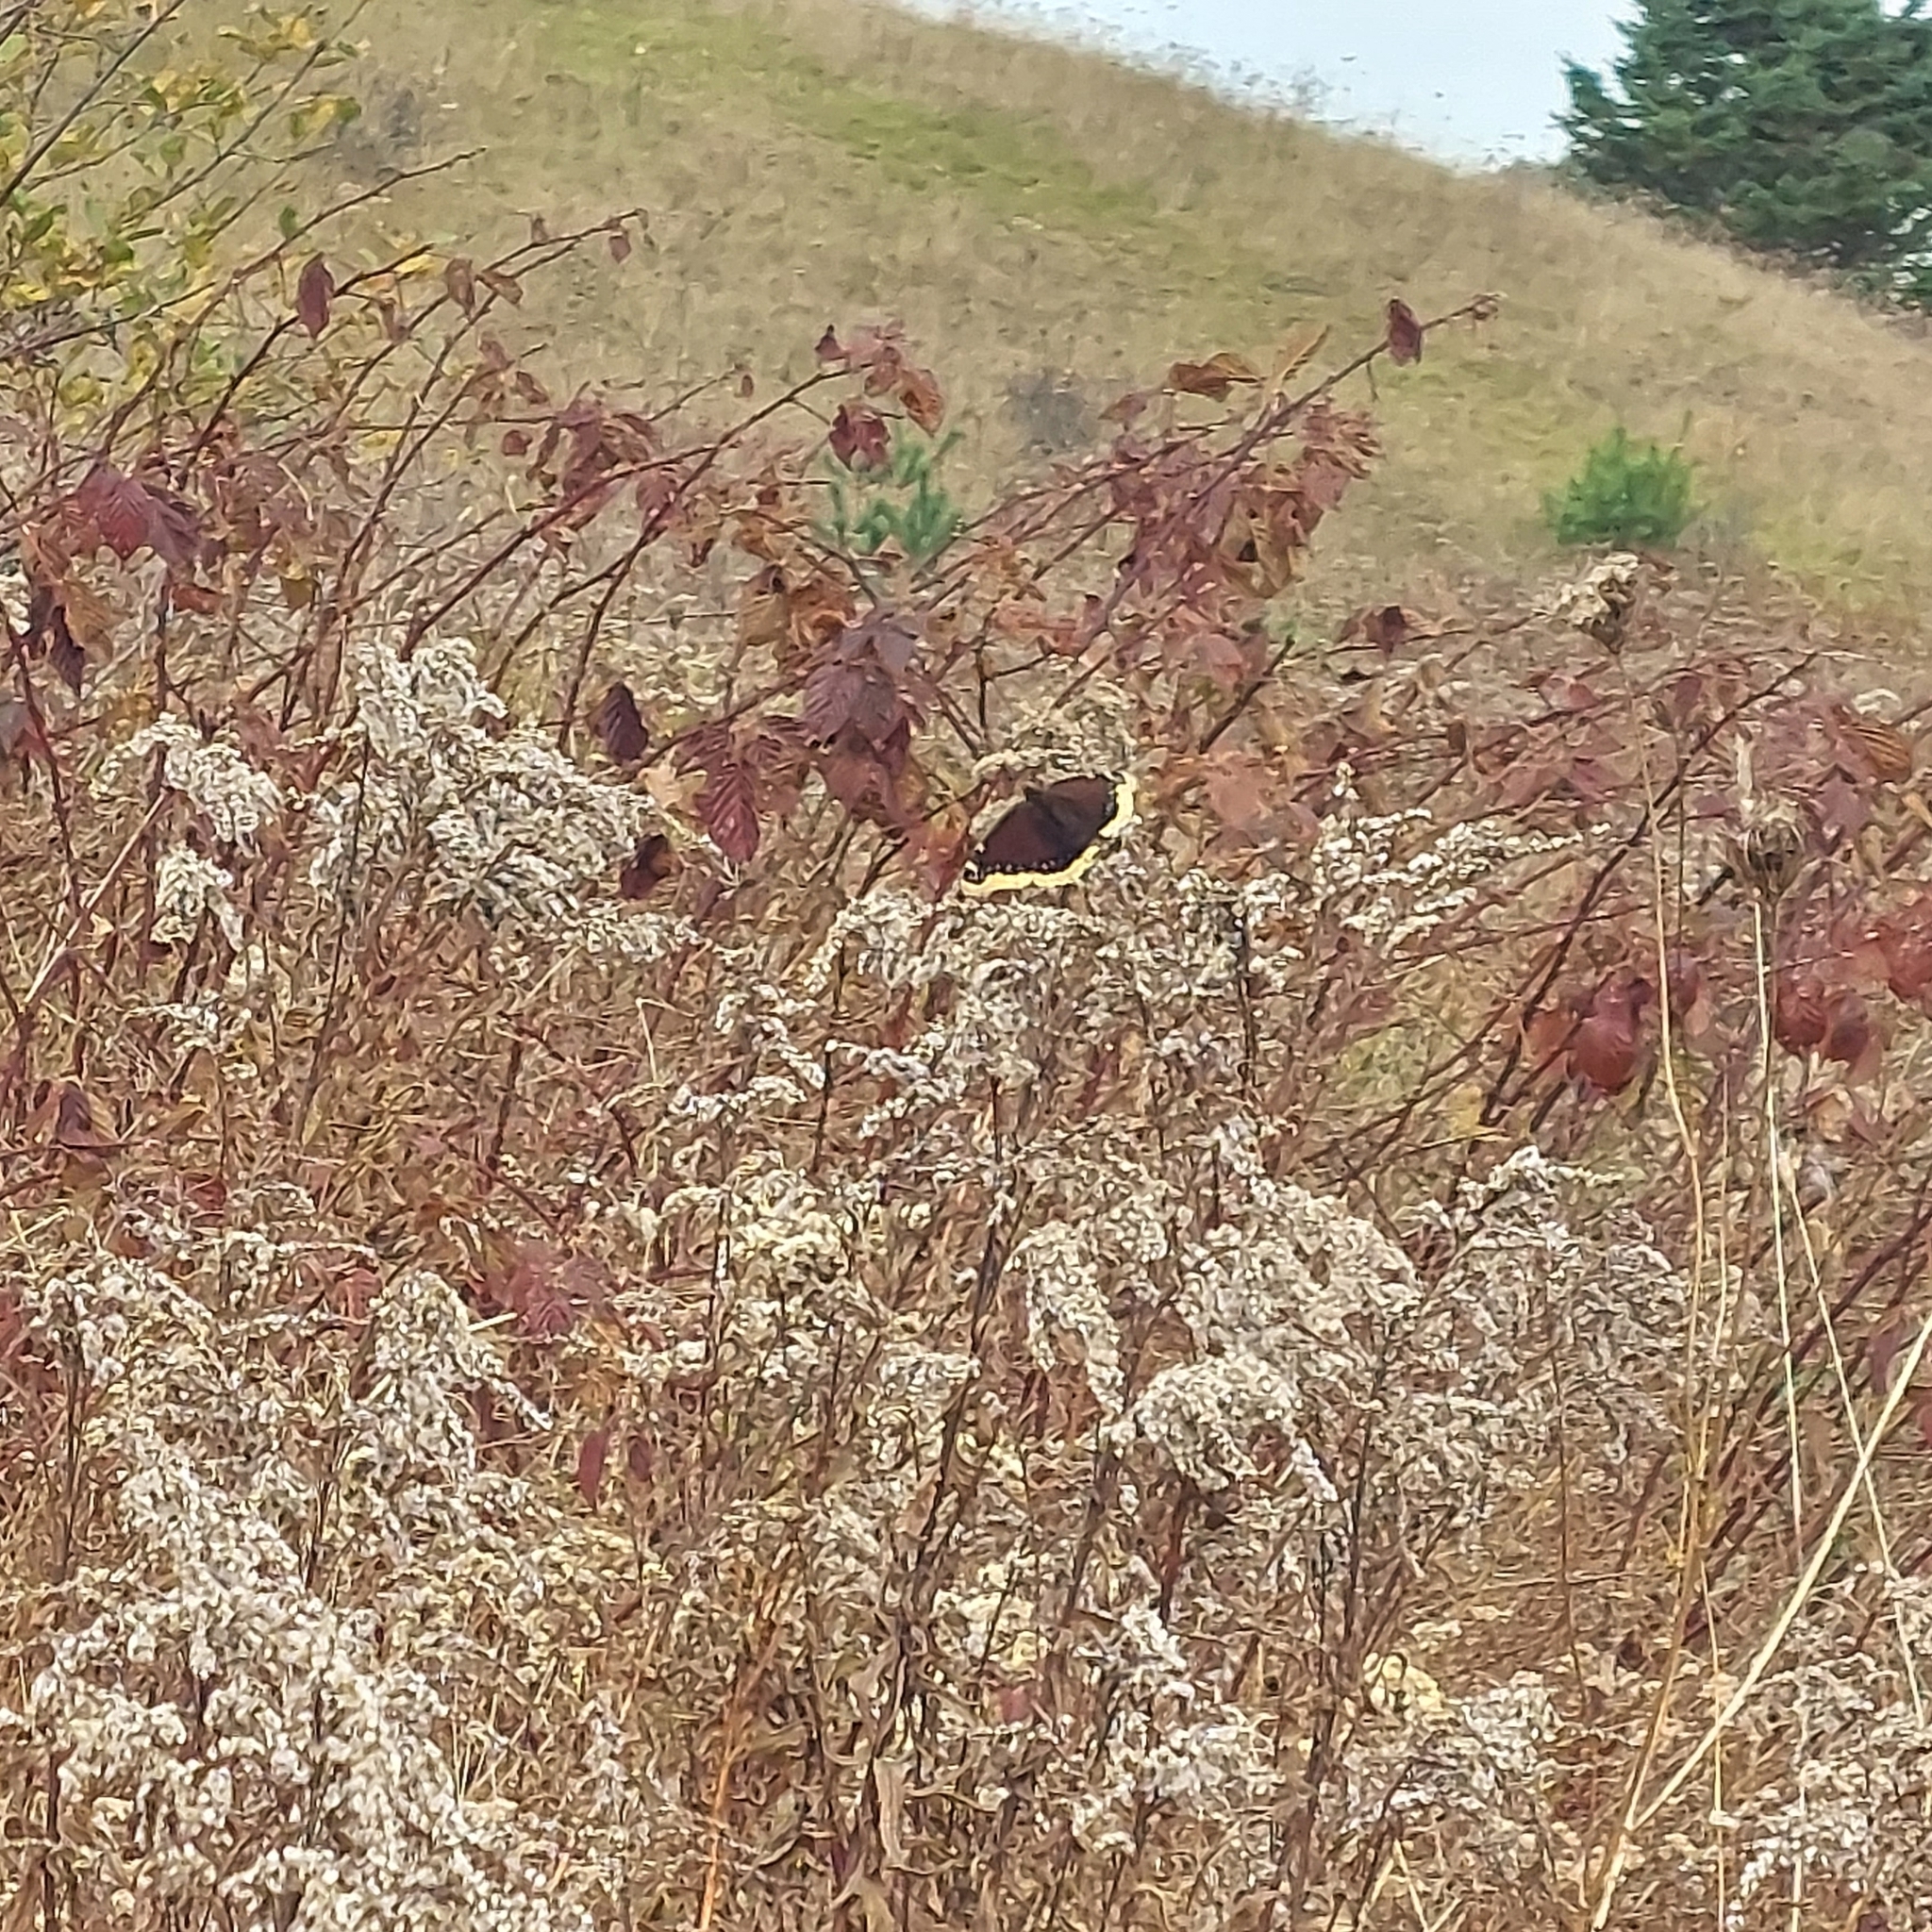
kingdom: Animalia
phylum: Arthropoda
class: Insecta
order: Lepidoptera
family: Nymphalidae
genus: Nymphalis
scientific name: Nymphalis antiopa
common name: Camberwell beauty
